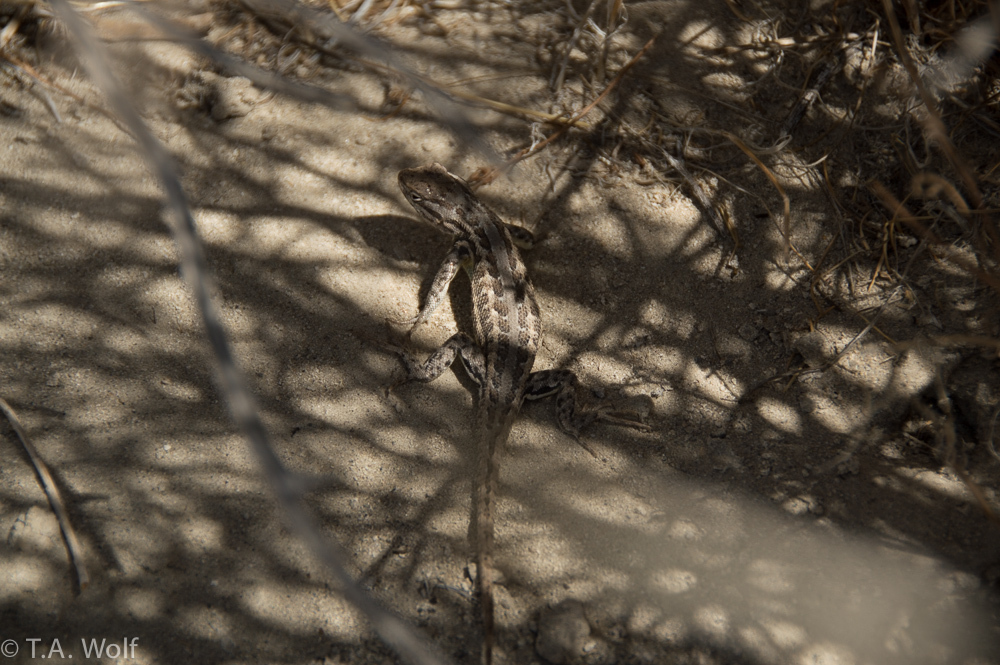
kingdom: Animalia
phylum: Chordata
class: Squamata
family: Phrynosomatidae
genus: Sceloporus
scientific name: Sceloporus graciosus
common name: Sagebrush lizard
